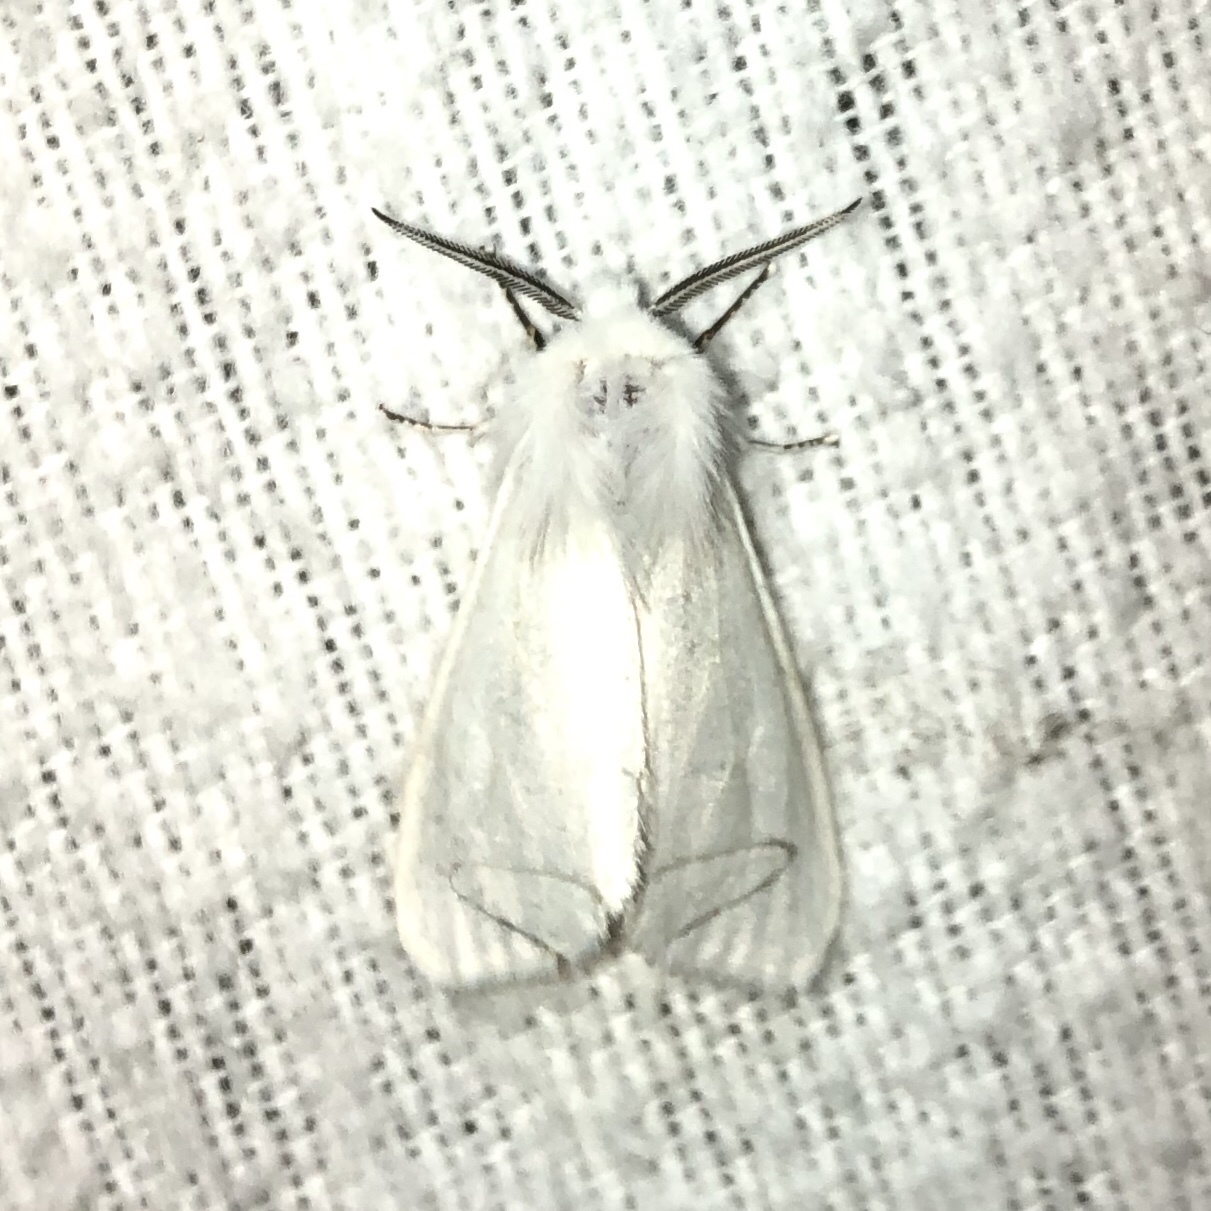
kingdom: Animalia
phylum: Arthropoda
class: Insecta
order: Lepidoptera
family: Erebidae
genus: Hyphantria
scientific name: Hyphantria cunea
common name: American white moth
